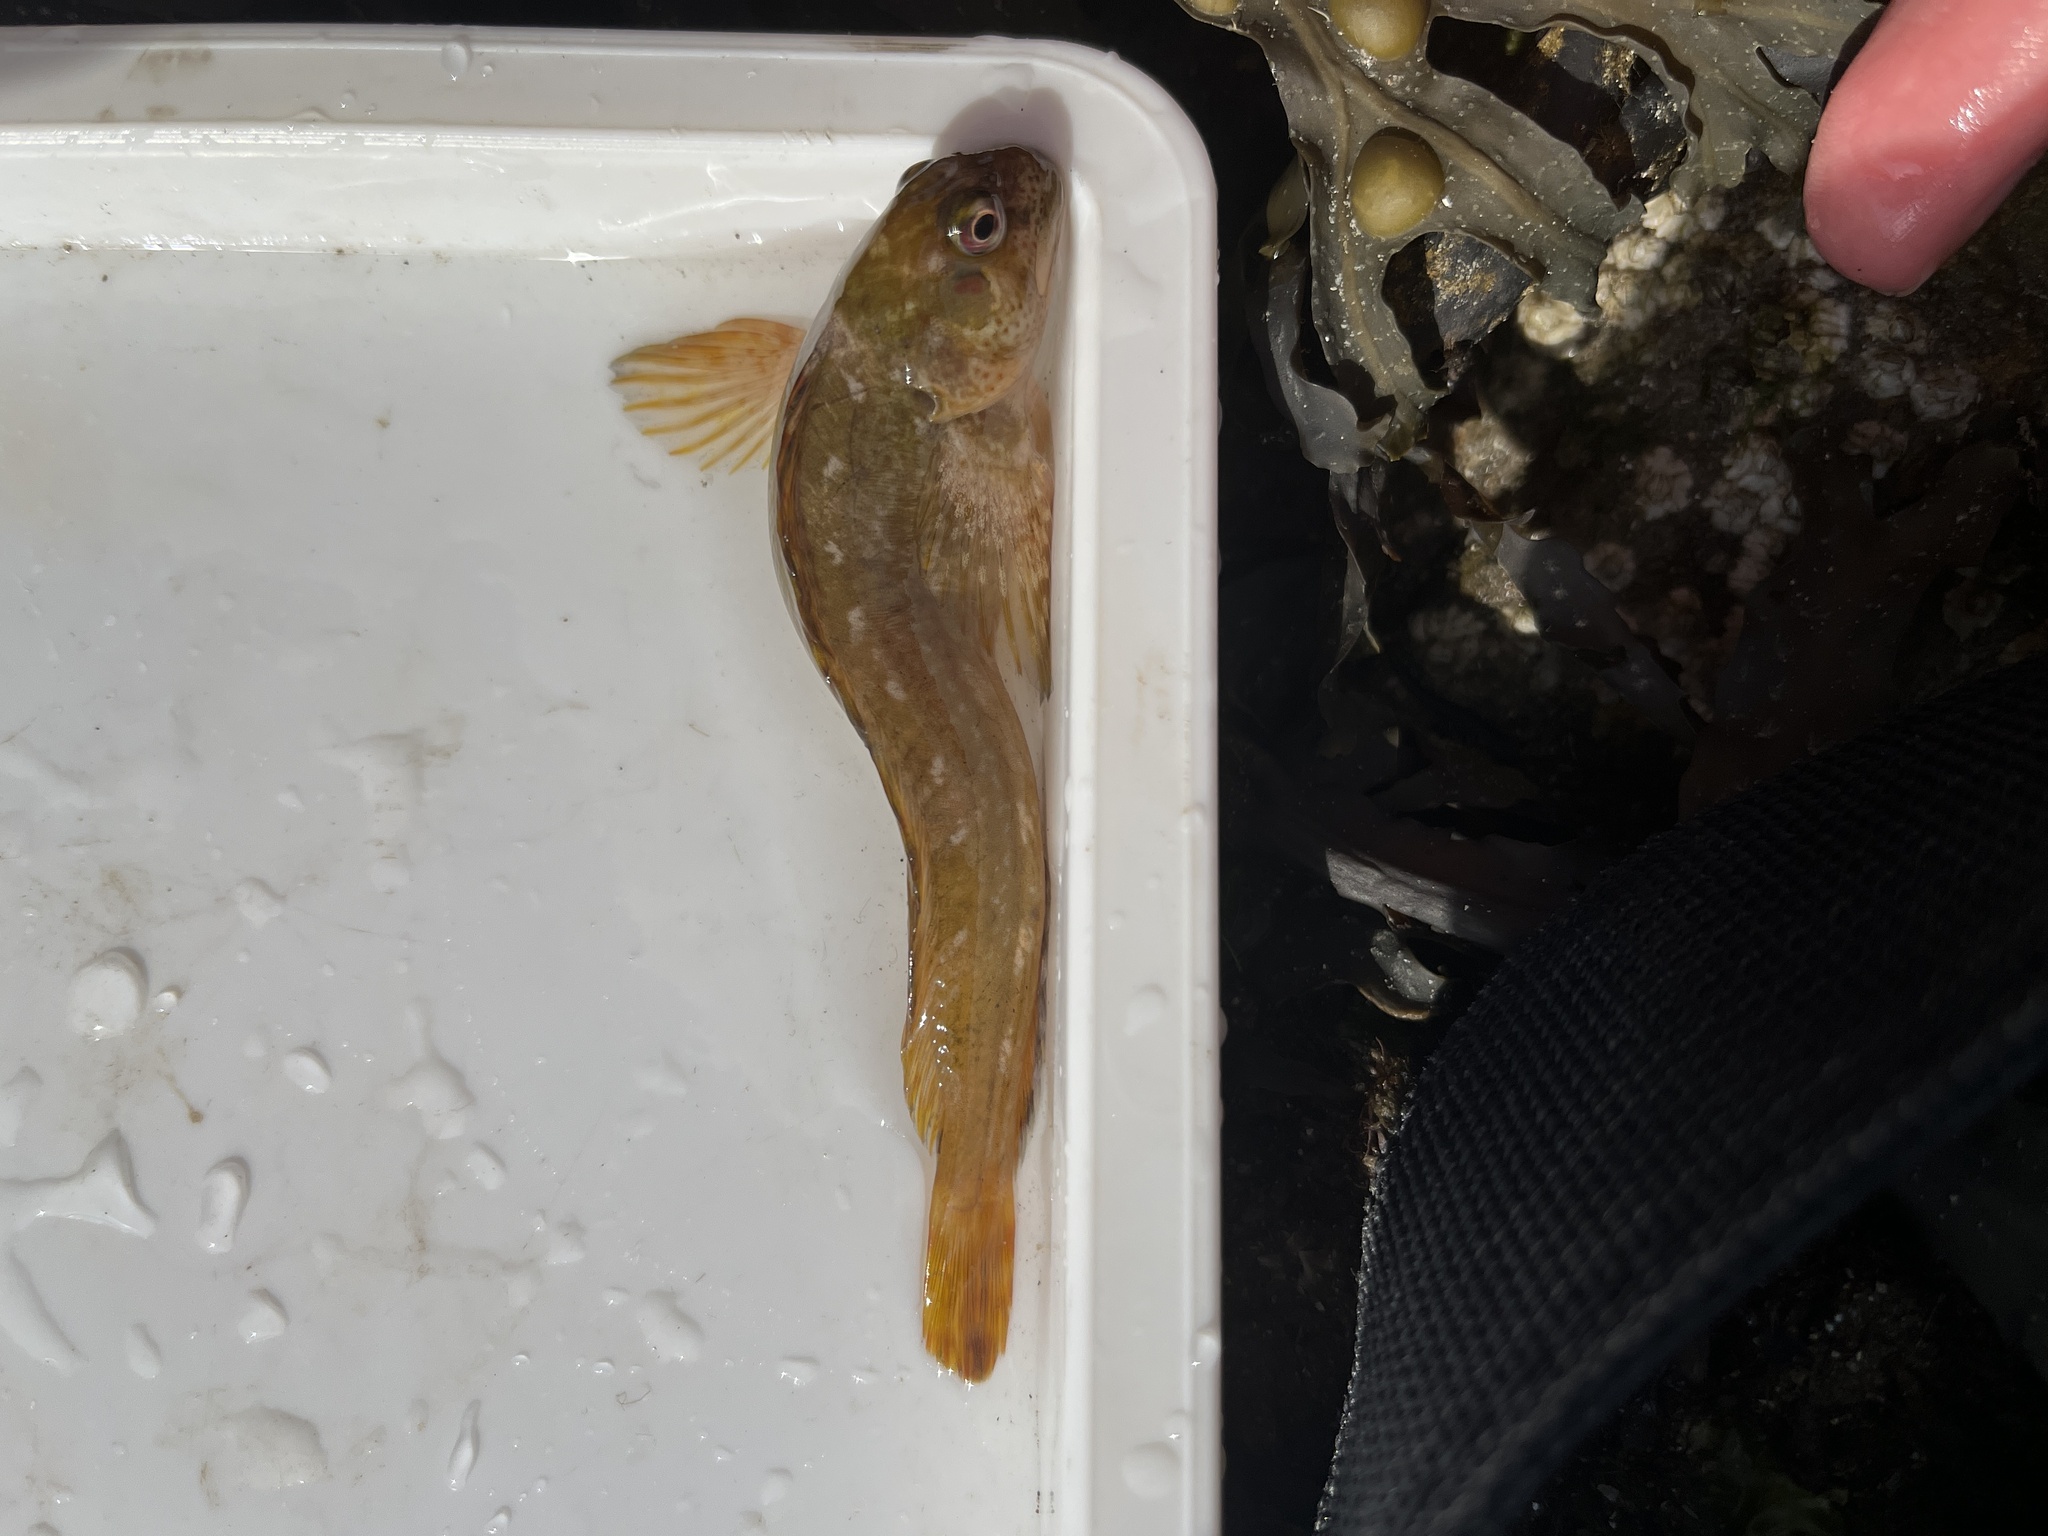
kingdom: Animalia
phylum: Chordata
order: Perciformes
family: Blenniidae
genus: Lipophrys
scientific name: Lipophrys pholis
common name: Shanny
